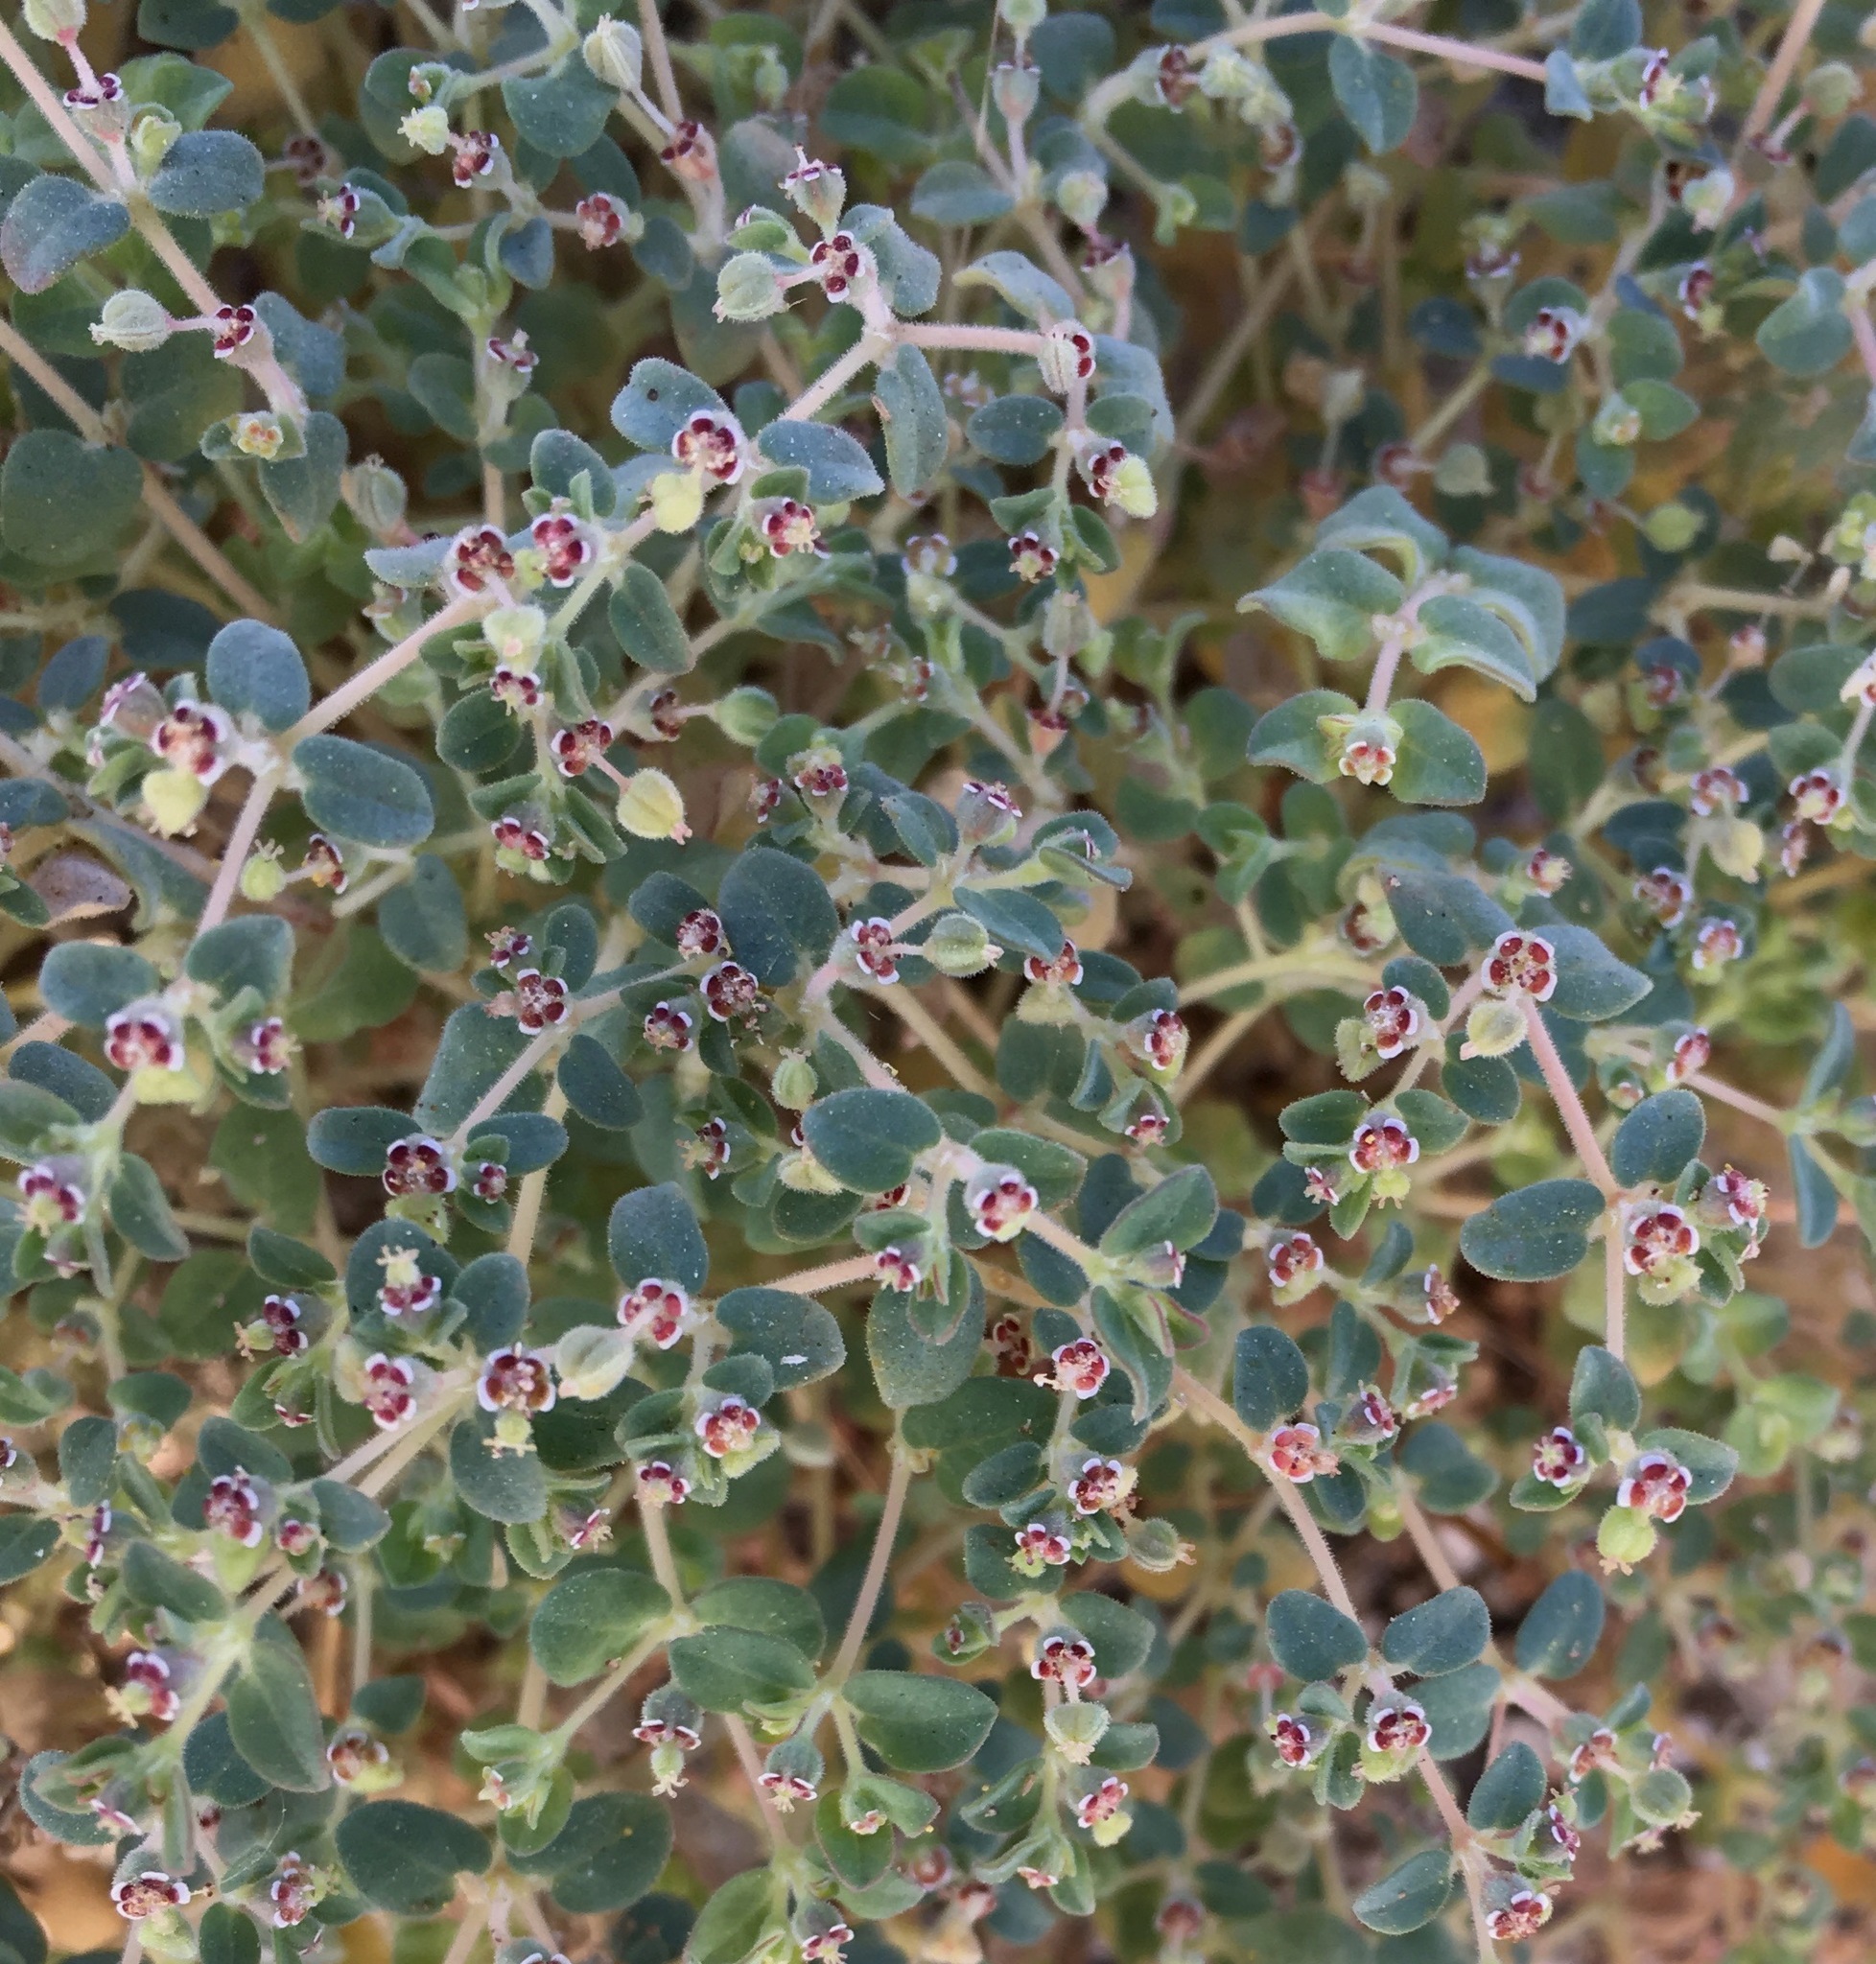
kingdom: Plantae
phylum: Tracheophyta
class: Magnoliopsida
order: Malpighiales
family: Euphorbiaceae
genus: Euphorbia
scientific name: Euphorbia polycarpa
